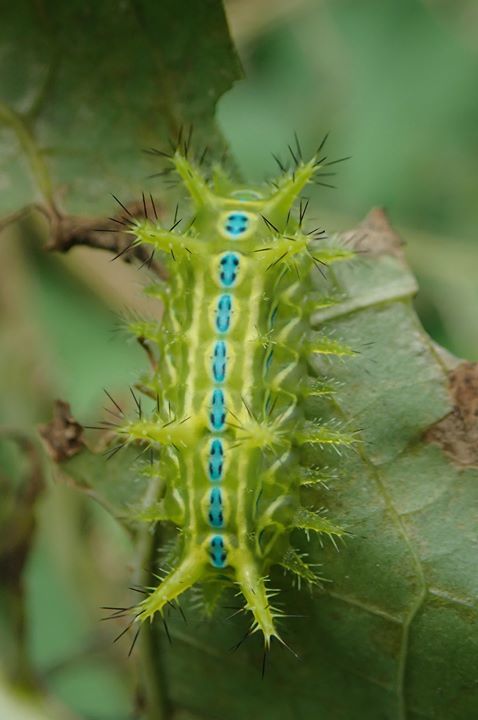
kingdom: Animalia
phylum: Arthropoda
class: Insecta
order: Lepidoptera
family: Limacodidae
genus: Phlossa
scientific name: Phlossa conjuncta
